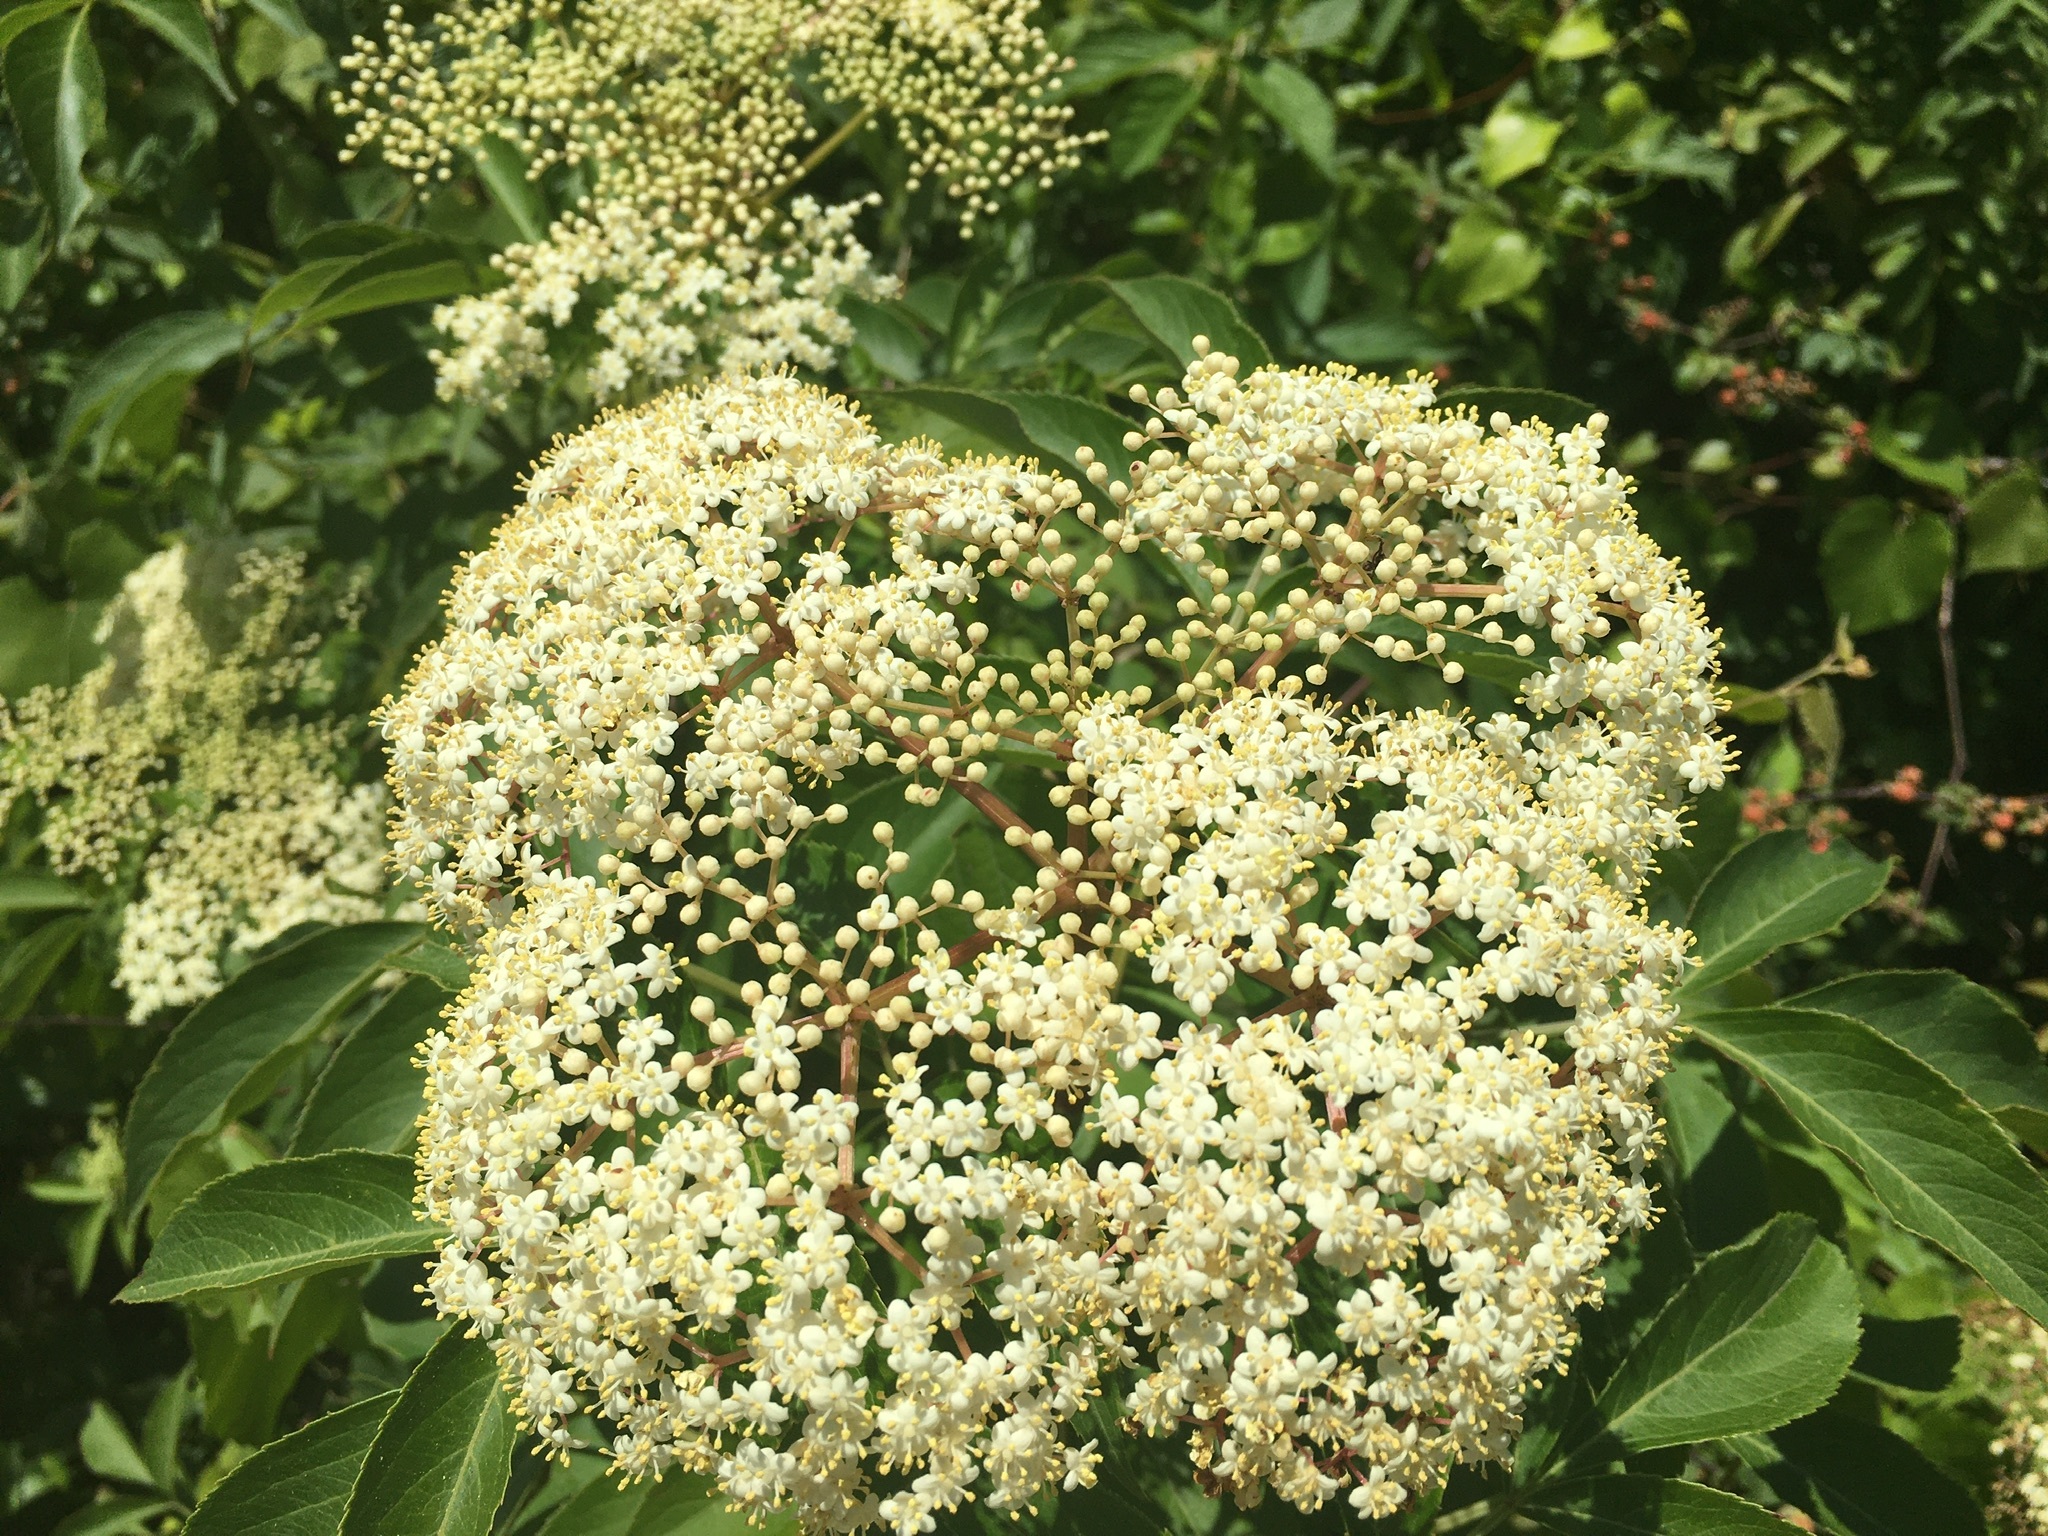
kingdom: Plantae
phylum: Tracheophyta
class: Magnoliopsida
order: Dipsacales
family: Viburnaceae
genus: Sambucus
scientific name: Sambucus canadensis
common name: American elder
